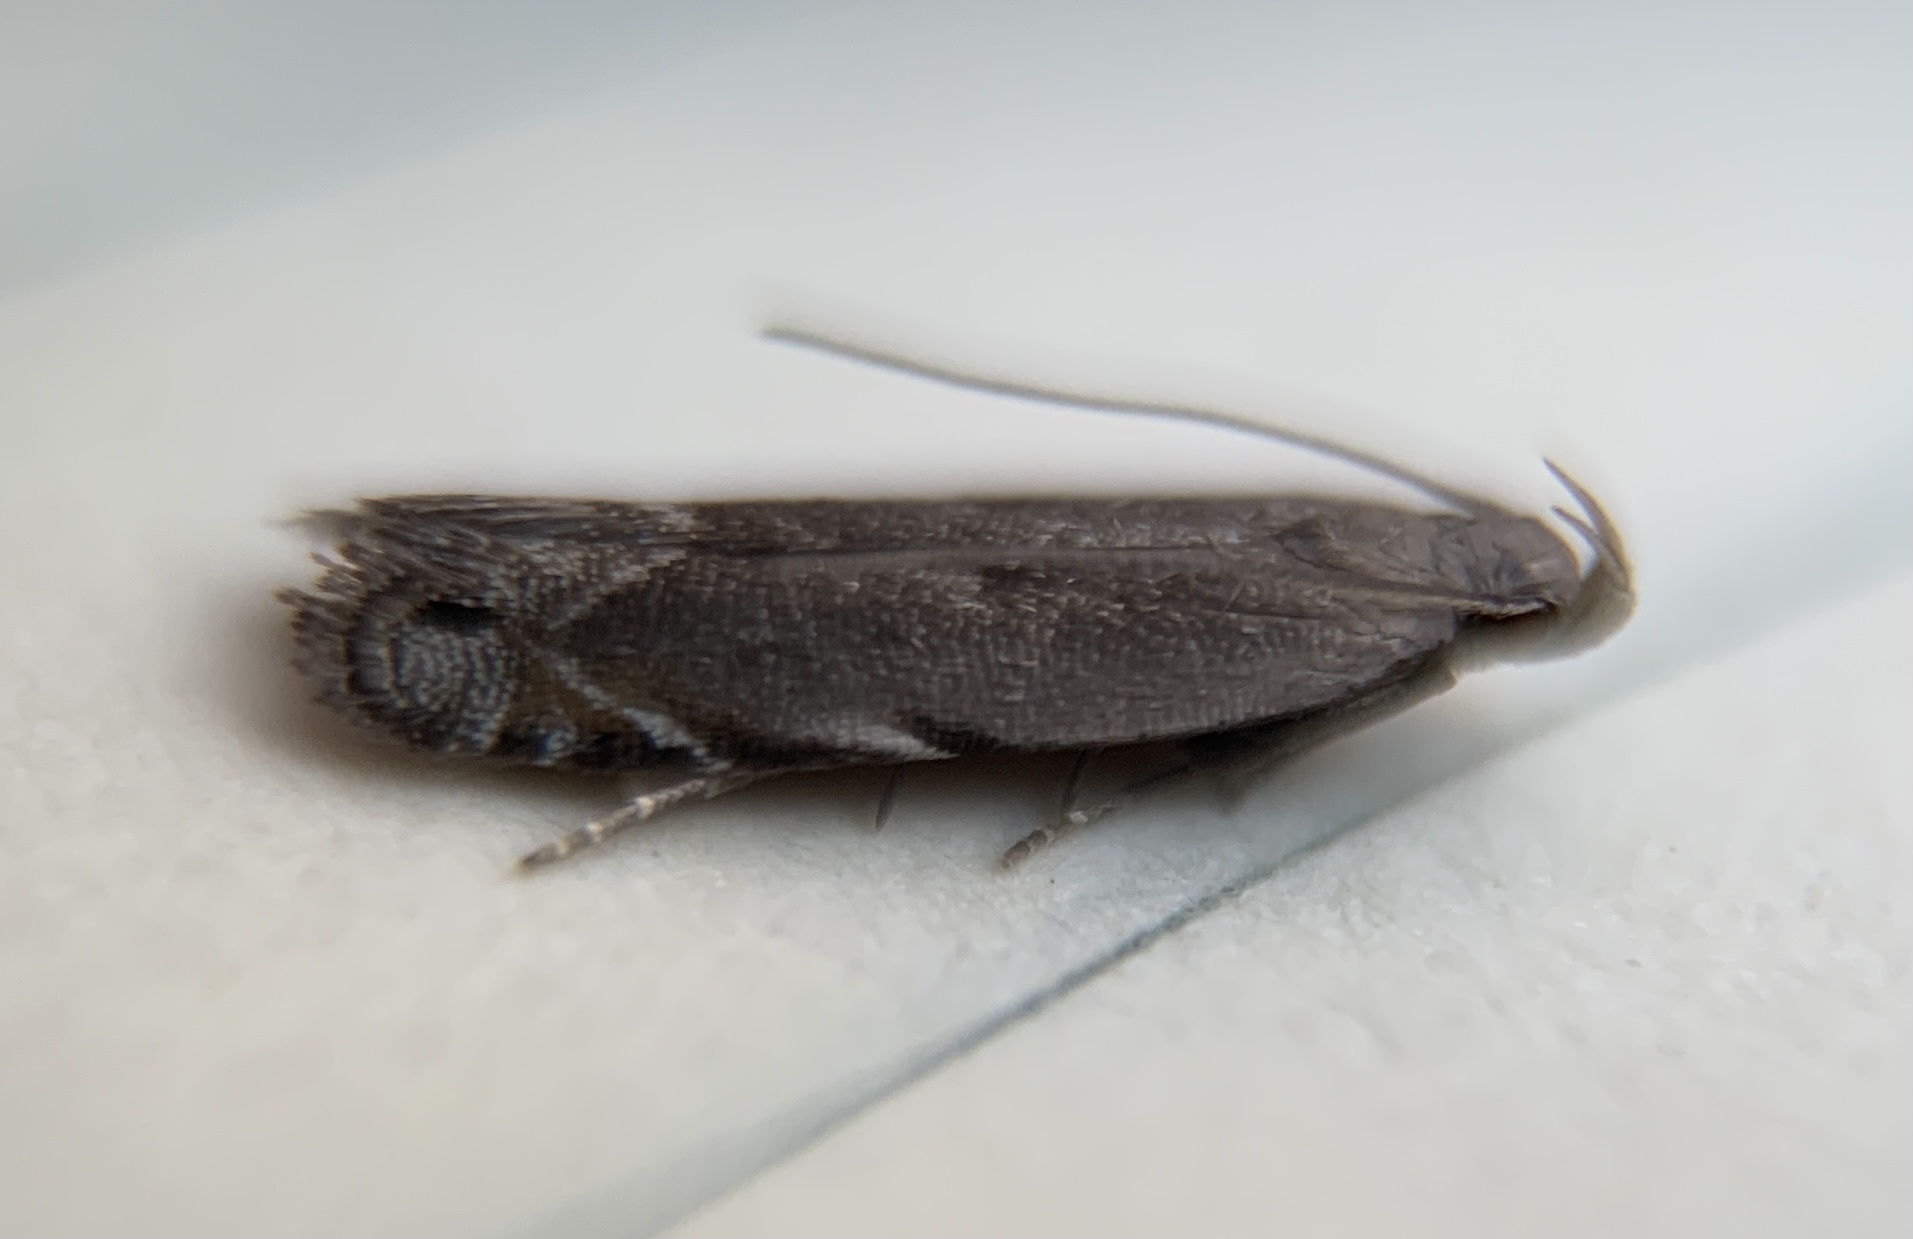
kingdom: Animalia
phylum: Arthropoda
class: Insecta
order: Lepidoptera
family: Gelechiidae
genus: Battaristis
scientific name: Battaristis concinnusella
